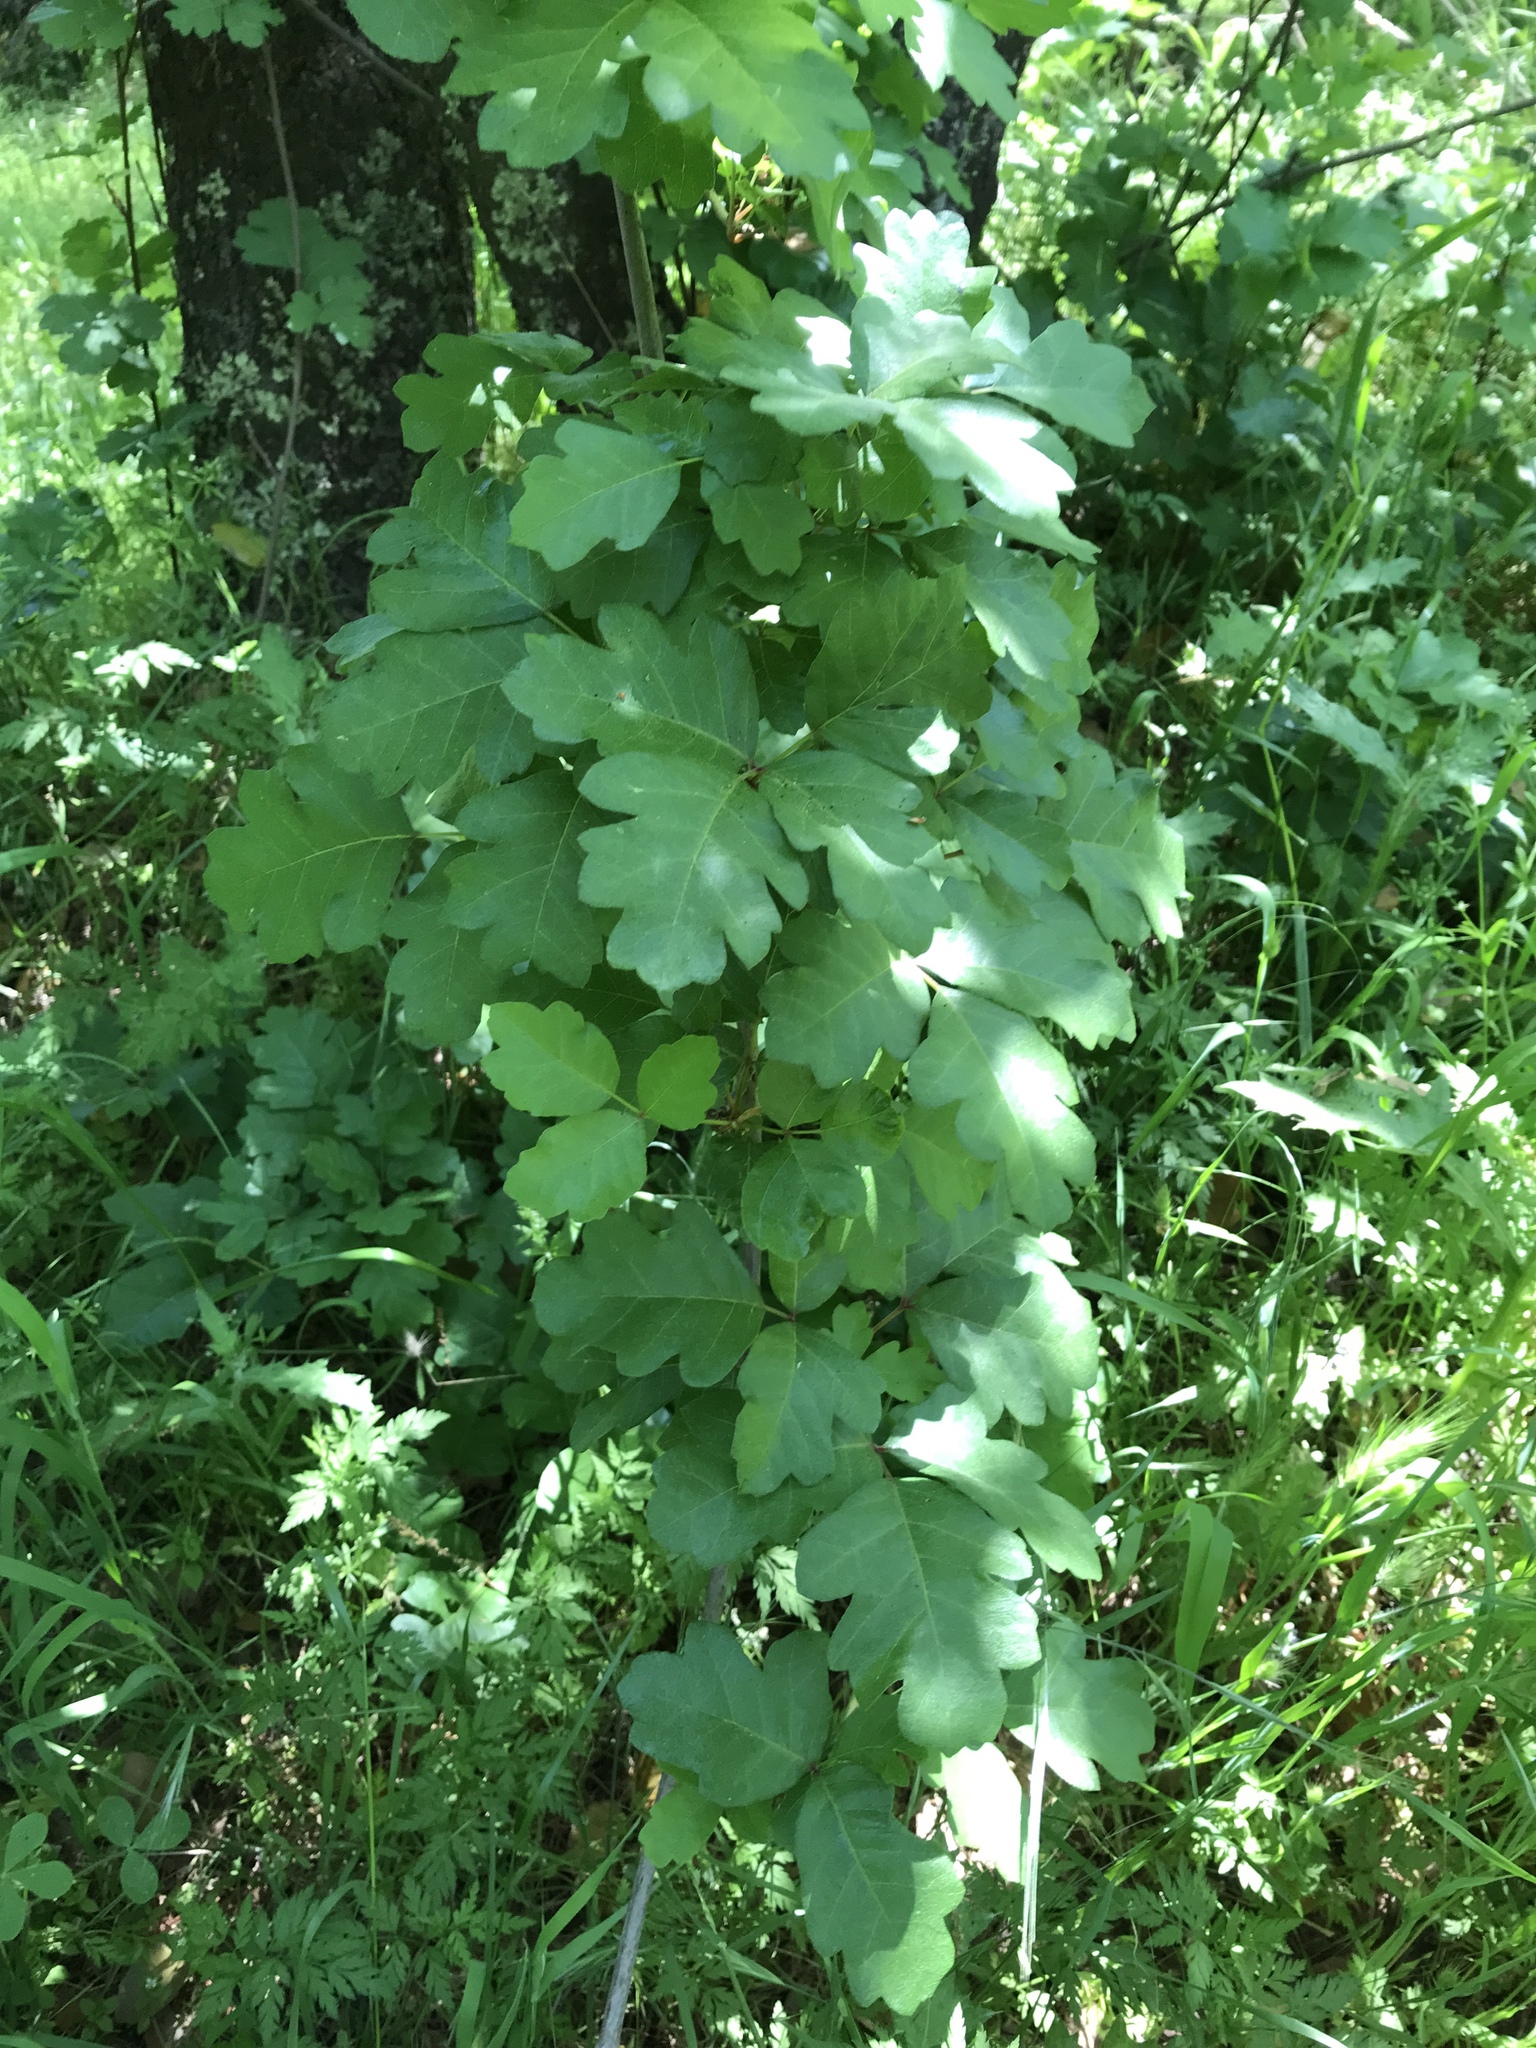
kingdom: Plantae
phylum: Tracheophyta
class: Magnoliopsida
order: Sapindales
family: Anacardiaceae
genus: Toxicodendron
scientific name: Toxicodendron diversilobum
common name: Pacific poison-oak
